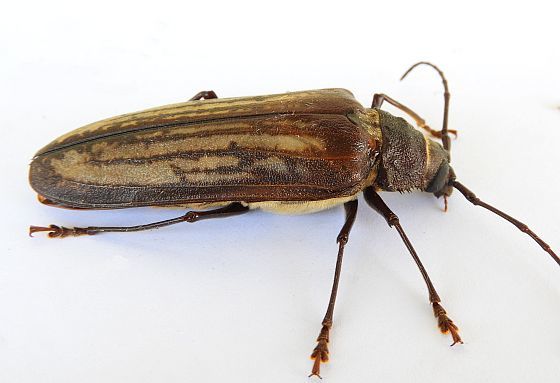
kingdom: Animalia
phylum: Arthropoda
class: Insecta
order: Coleoptera
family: Cerambycidae
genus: Trichocnemis
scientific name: Trichocnemis spiculatus
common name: Long-horned beetle
